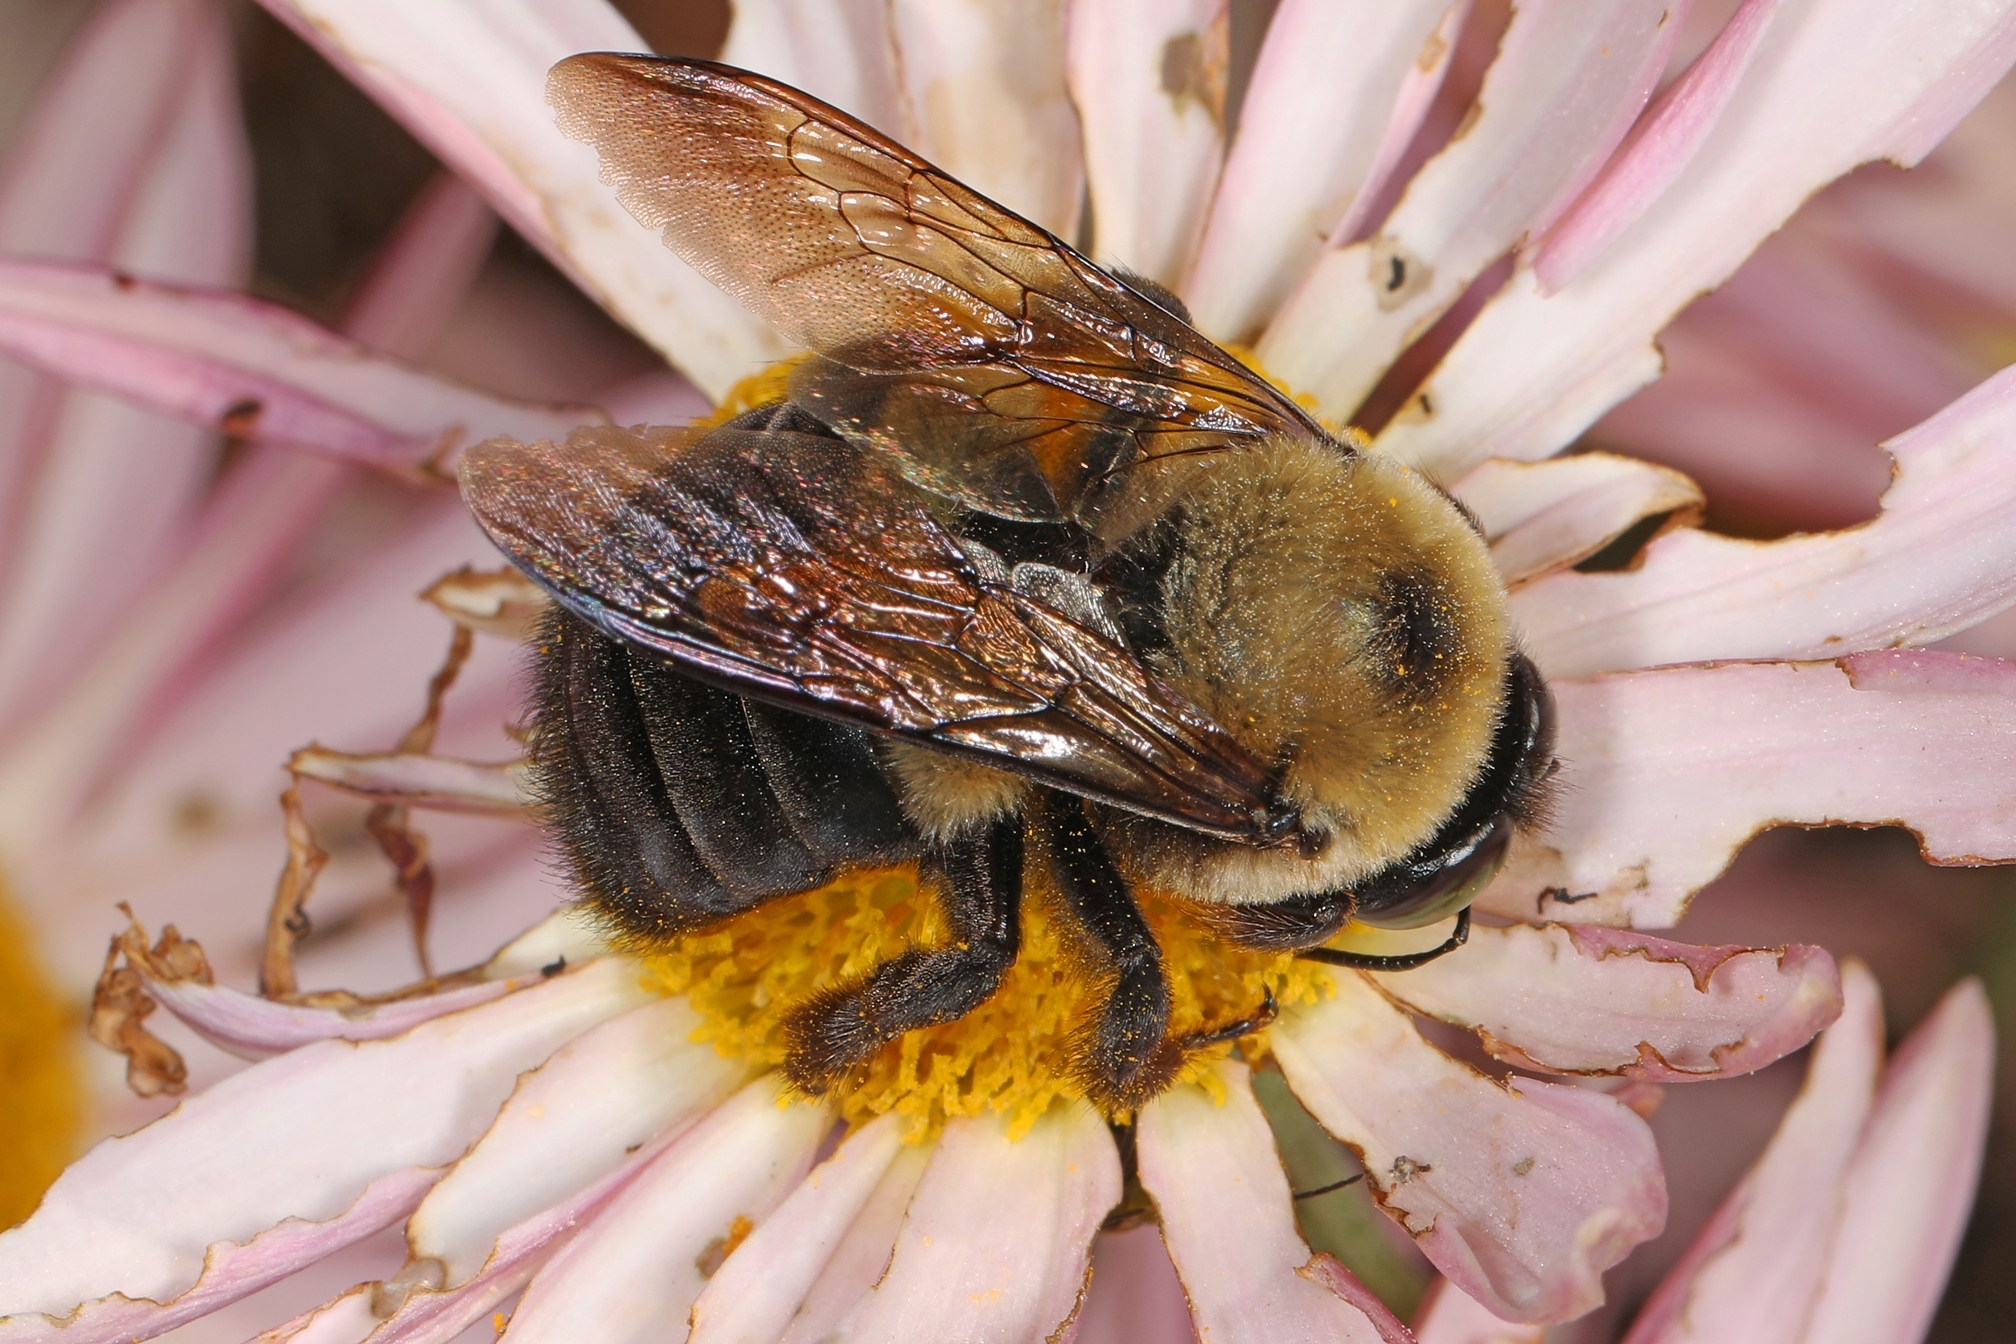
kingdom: Animalia
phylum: Arthropoda
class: Insecta
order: Hymenoptera
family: Apidae
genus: Xylocopa
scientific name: Xylocopa virginica
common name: Carpenter bee
